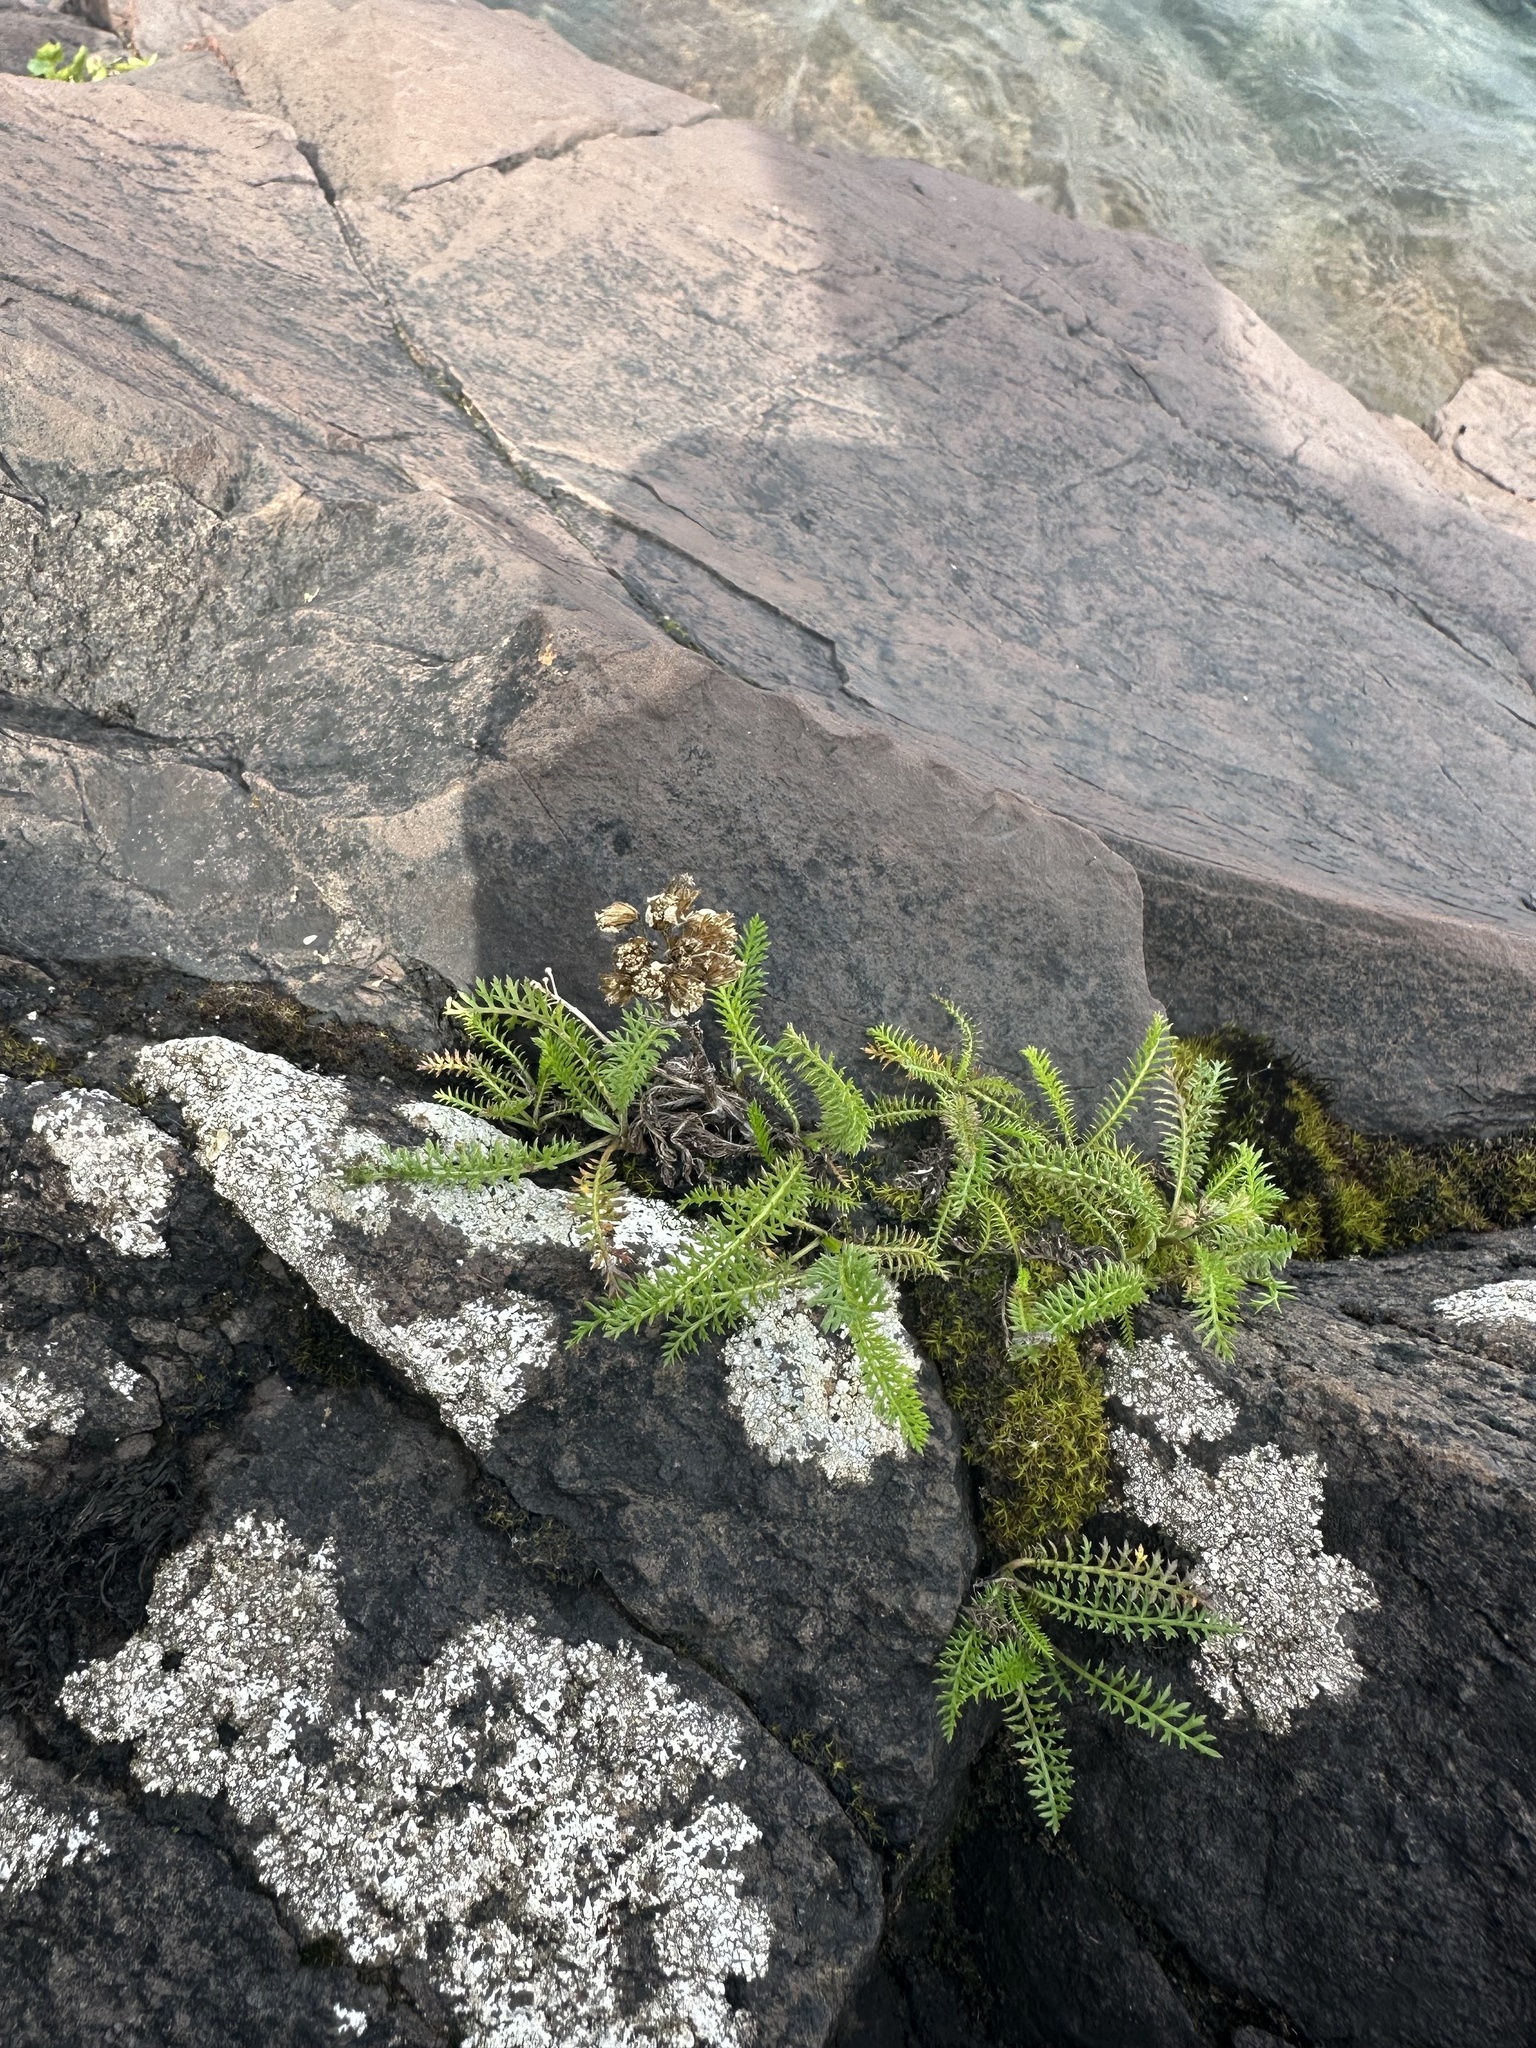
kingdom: Plantae
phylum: Tracheophyta
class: Magnoliopsida
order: Asterales
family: Asteraceae
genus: Achillea
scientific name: Achillea millefolium
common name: Yarrow
